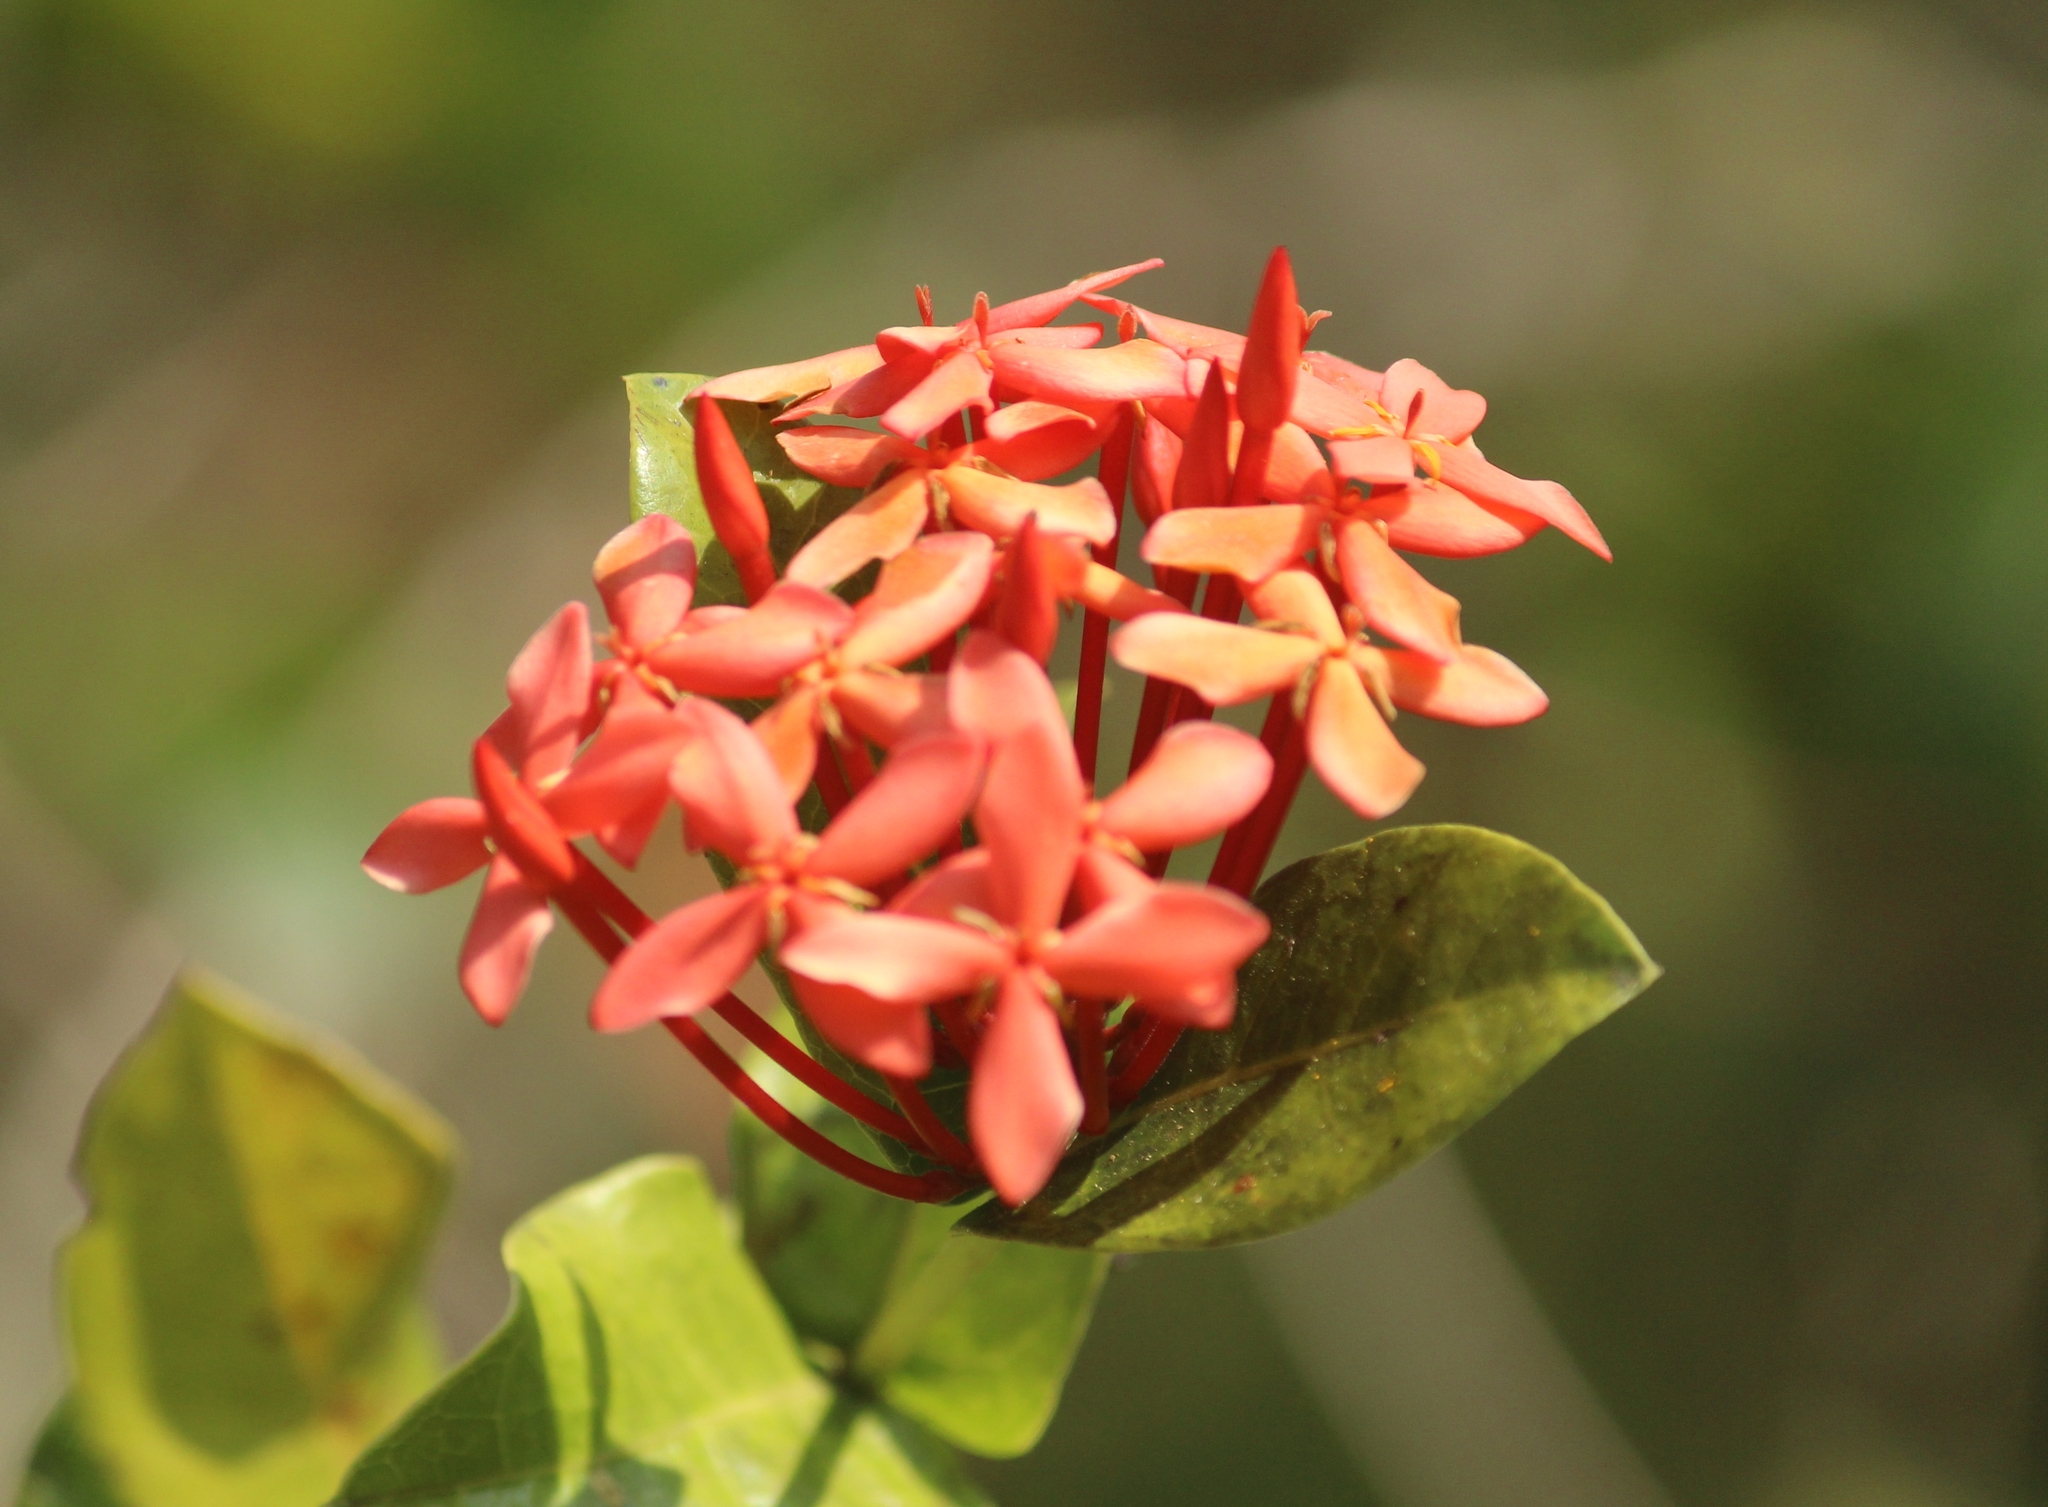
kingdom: Plantae
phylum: Tracheophyta
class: Magnoliopsida
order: Gentianales
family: Rubiaceae
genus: Ixora
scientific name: Ixora coccinea
